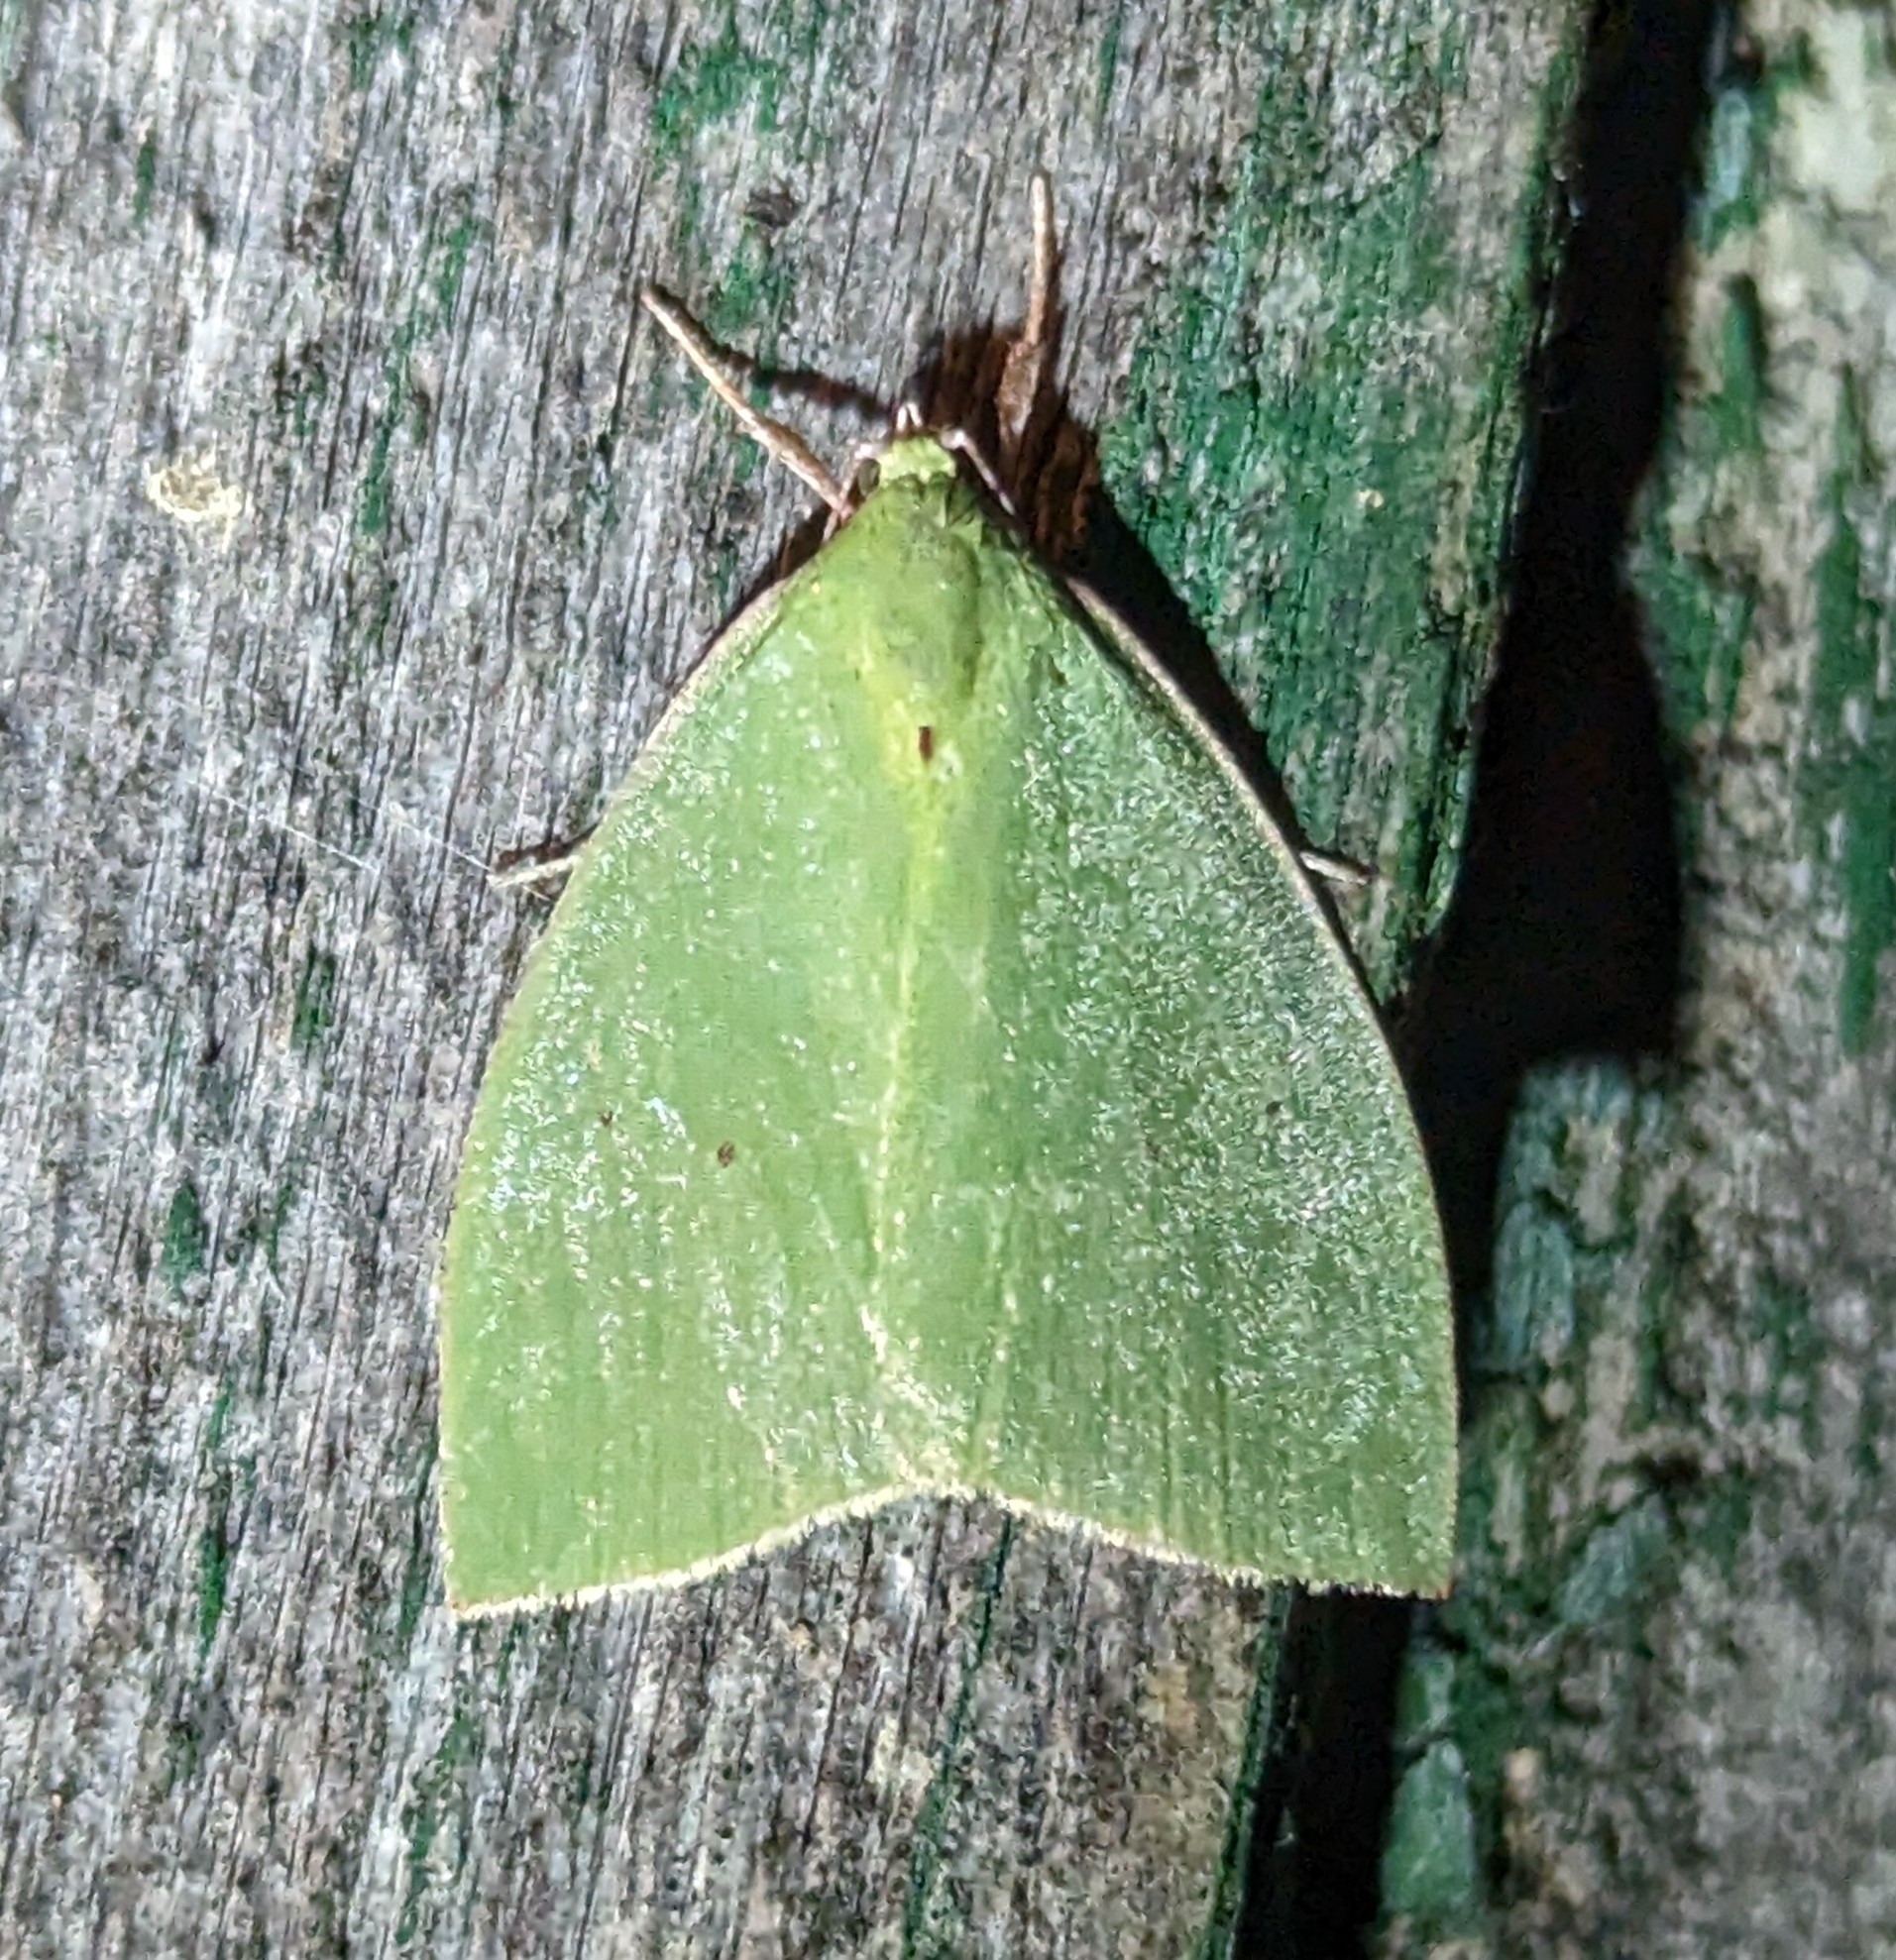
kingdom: Animalia
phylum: Arthropoda
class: Insecta
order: Lepidoptera
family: Nolidae
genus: Tyana
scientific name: Tyana falcata
